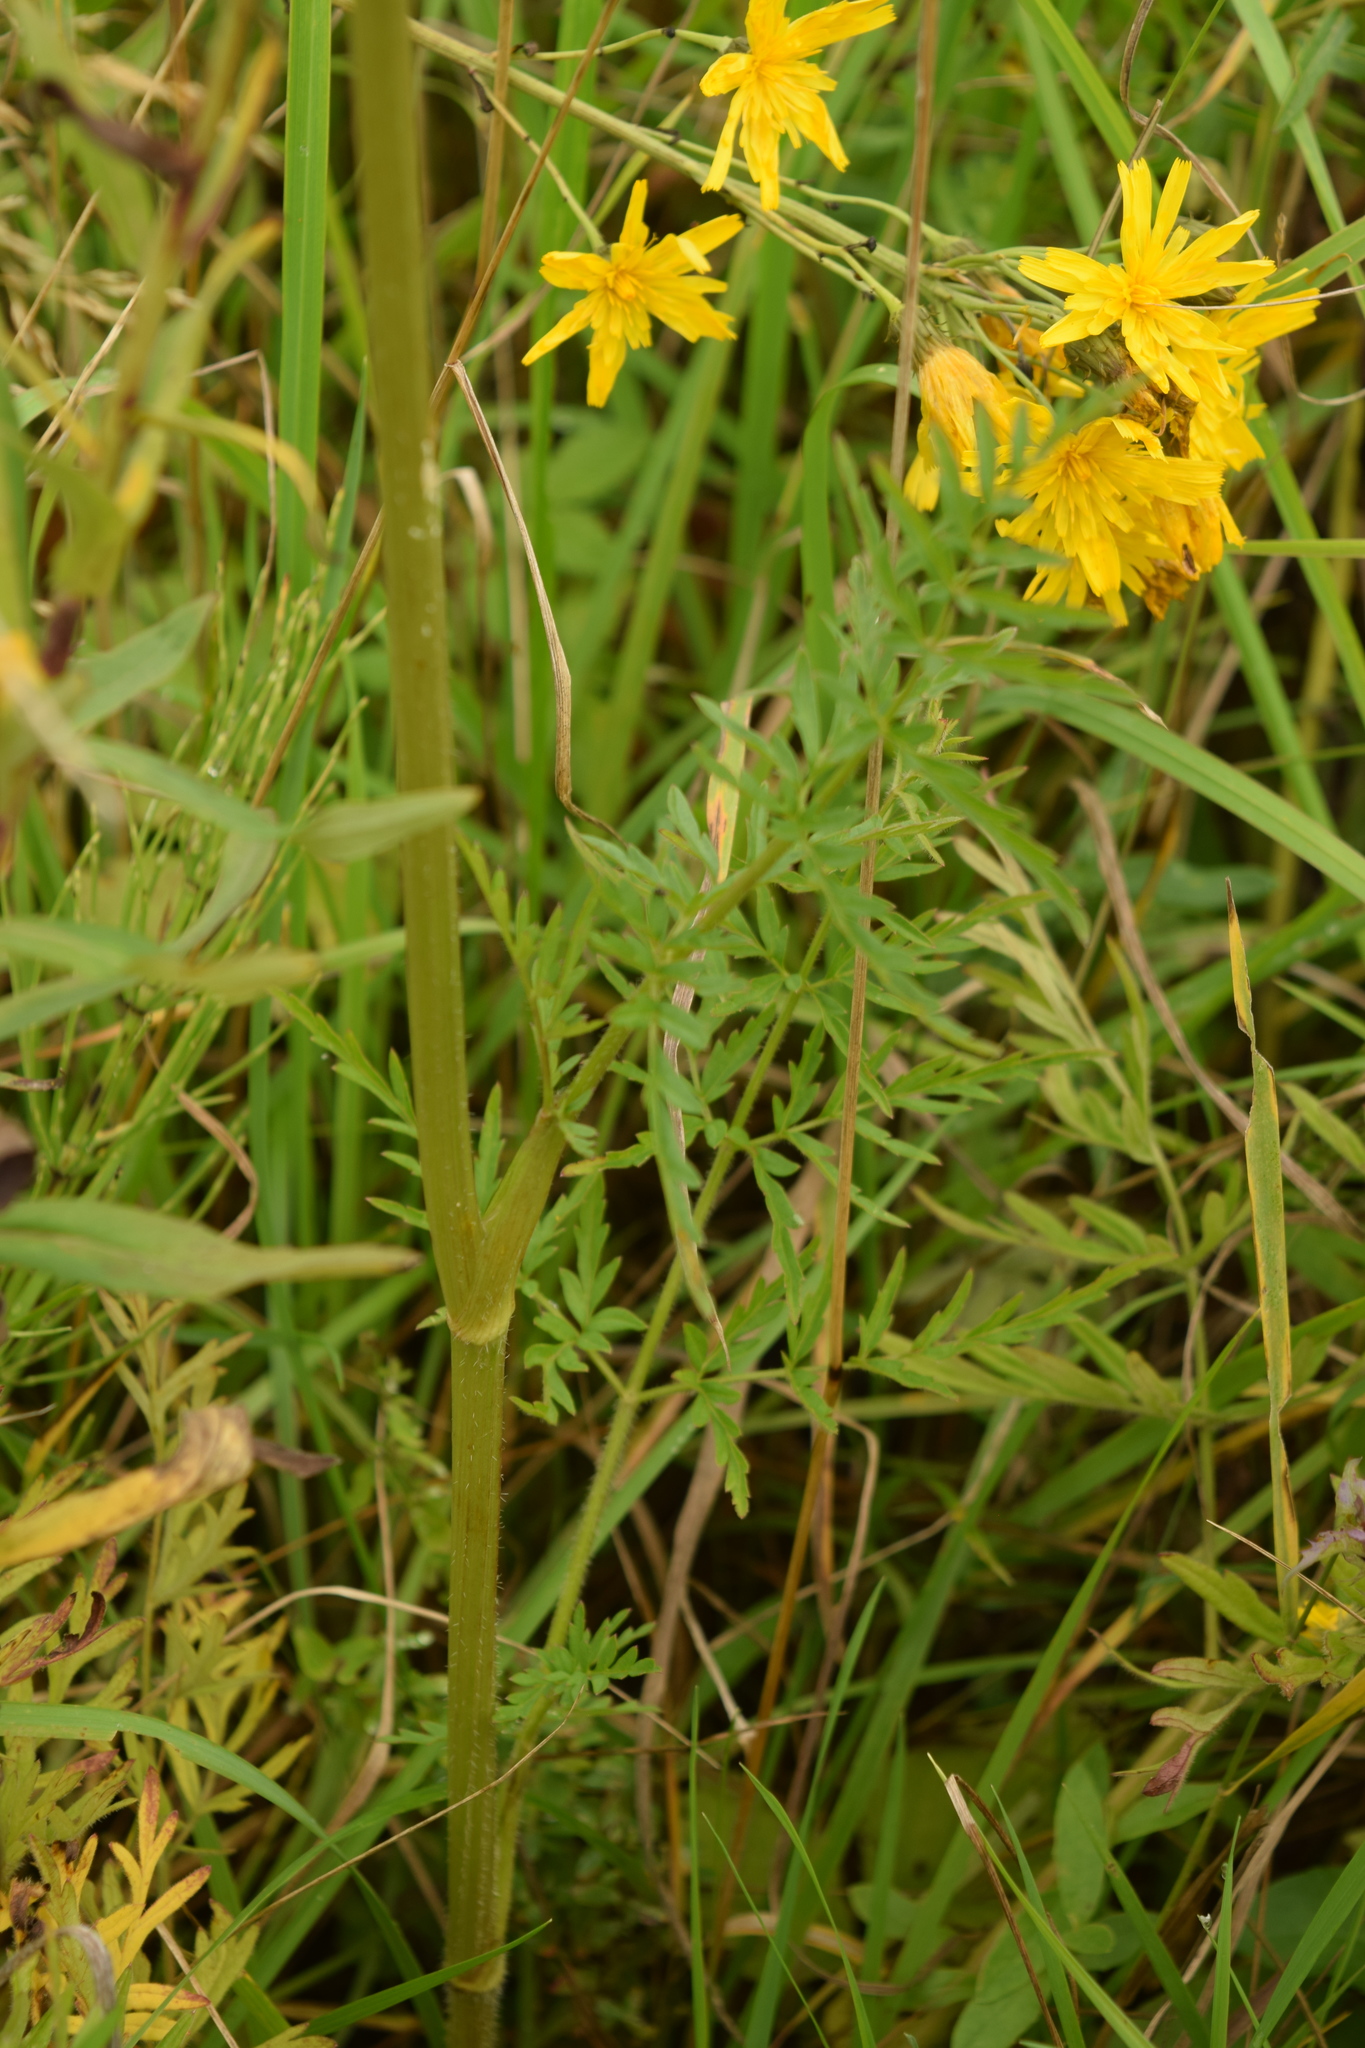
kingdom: Plantae
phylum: Tracheophyta
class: Magnoliopsida
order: Apiales
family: Apiaceae
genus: Silphiodaucus
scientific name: Silphiodaucus prutenicus
